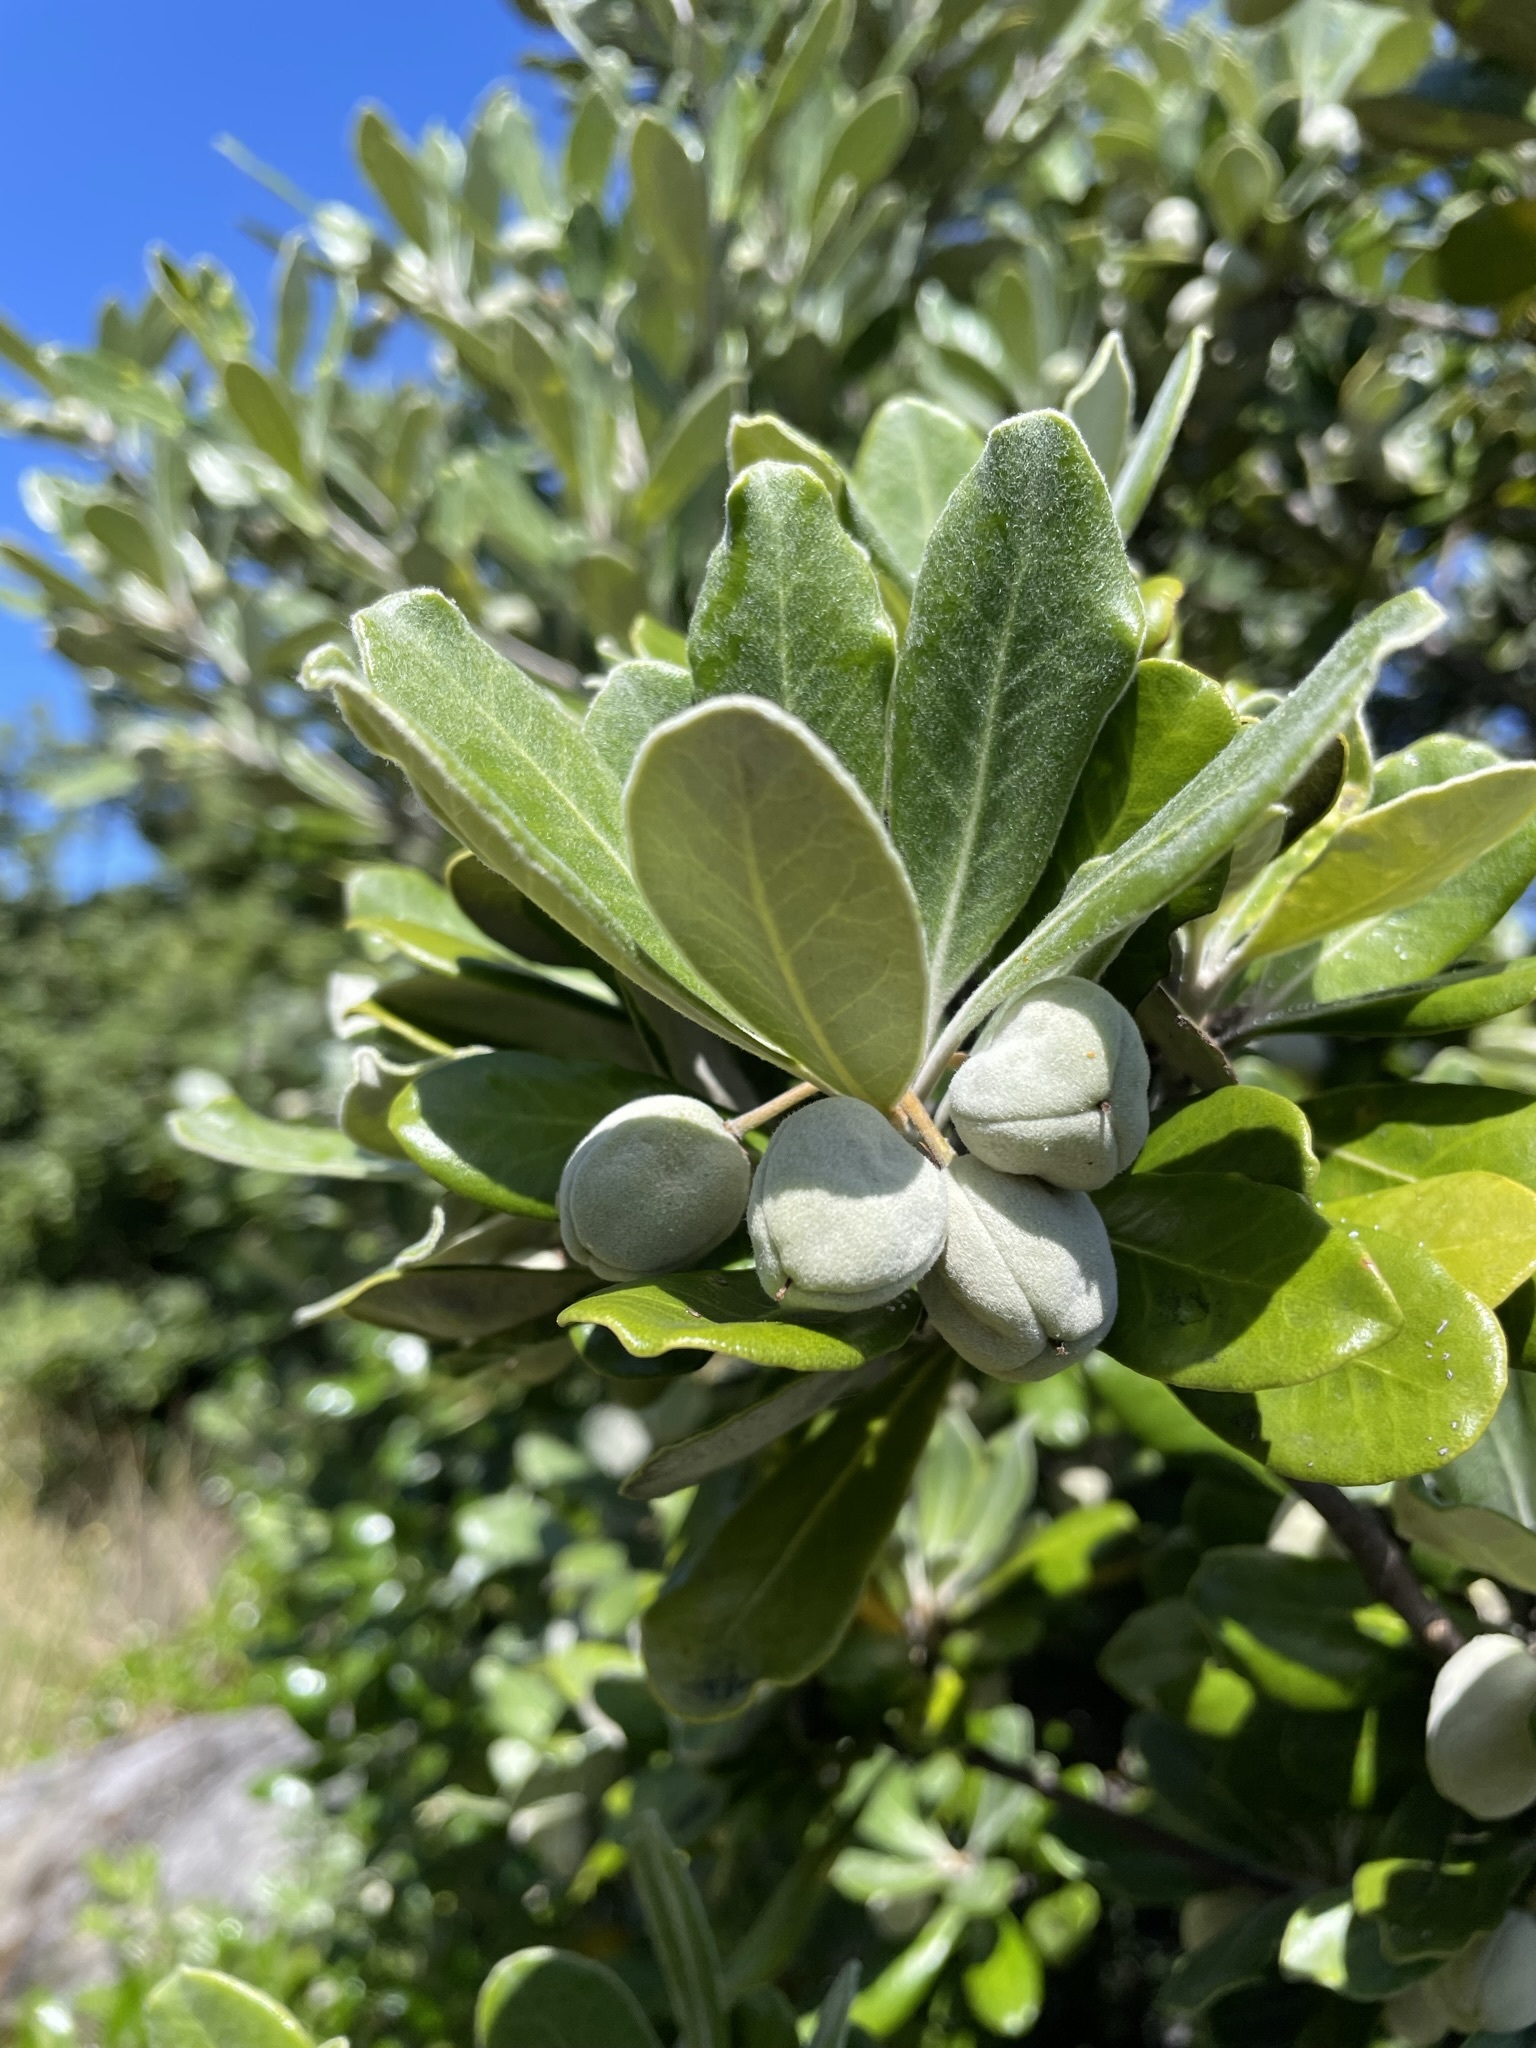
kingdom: Plantae
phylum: Tracheophyta
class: Magnoliopsida
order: Apiales
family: Pittosporaceae
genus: Pittosporum
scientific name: Pittosporum crassifolium
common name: Karo
